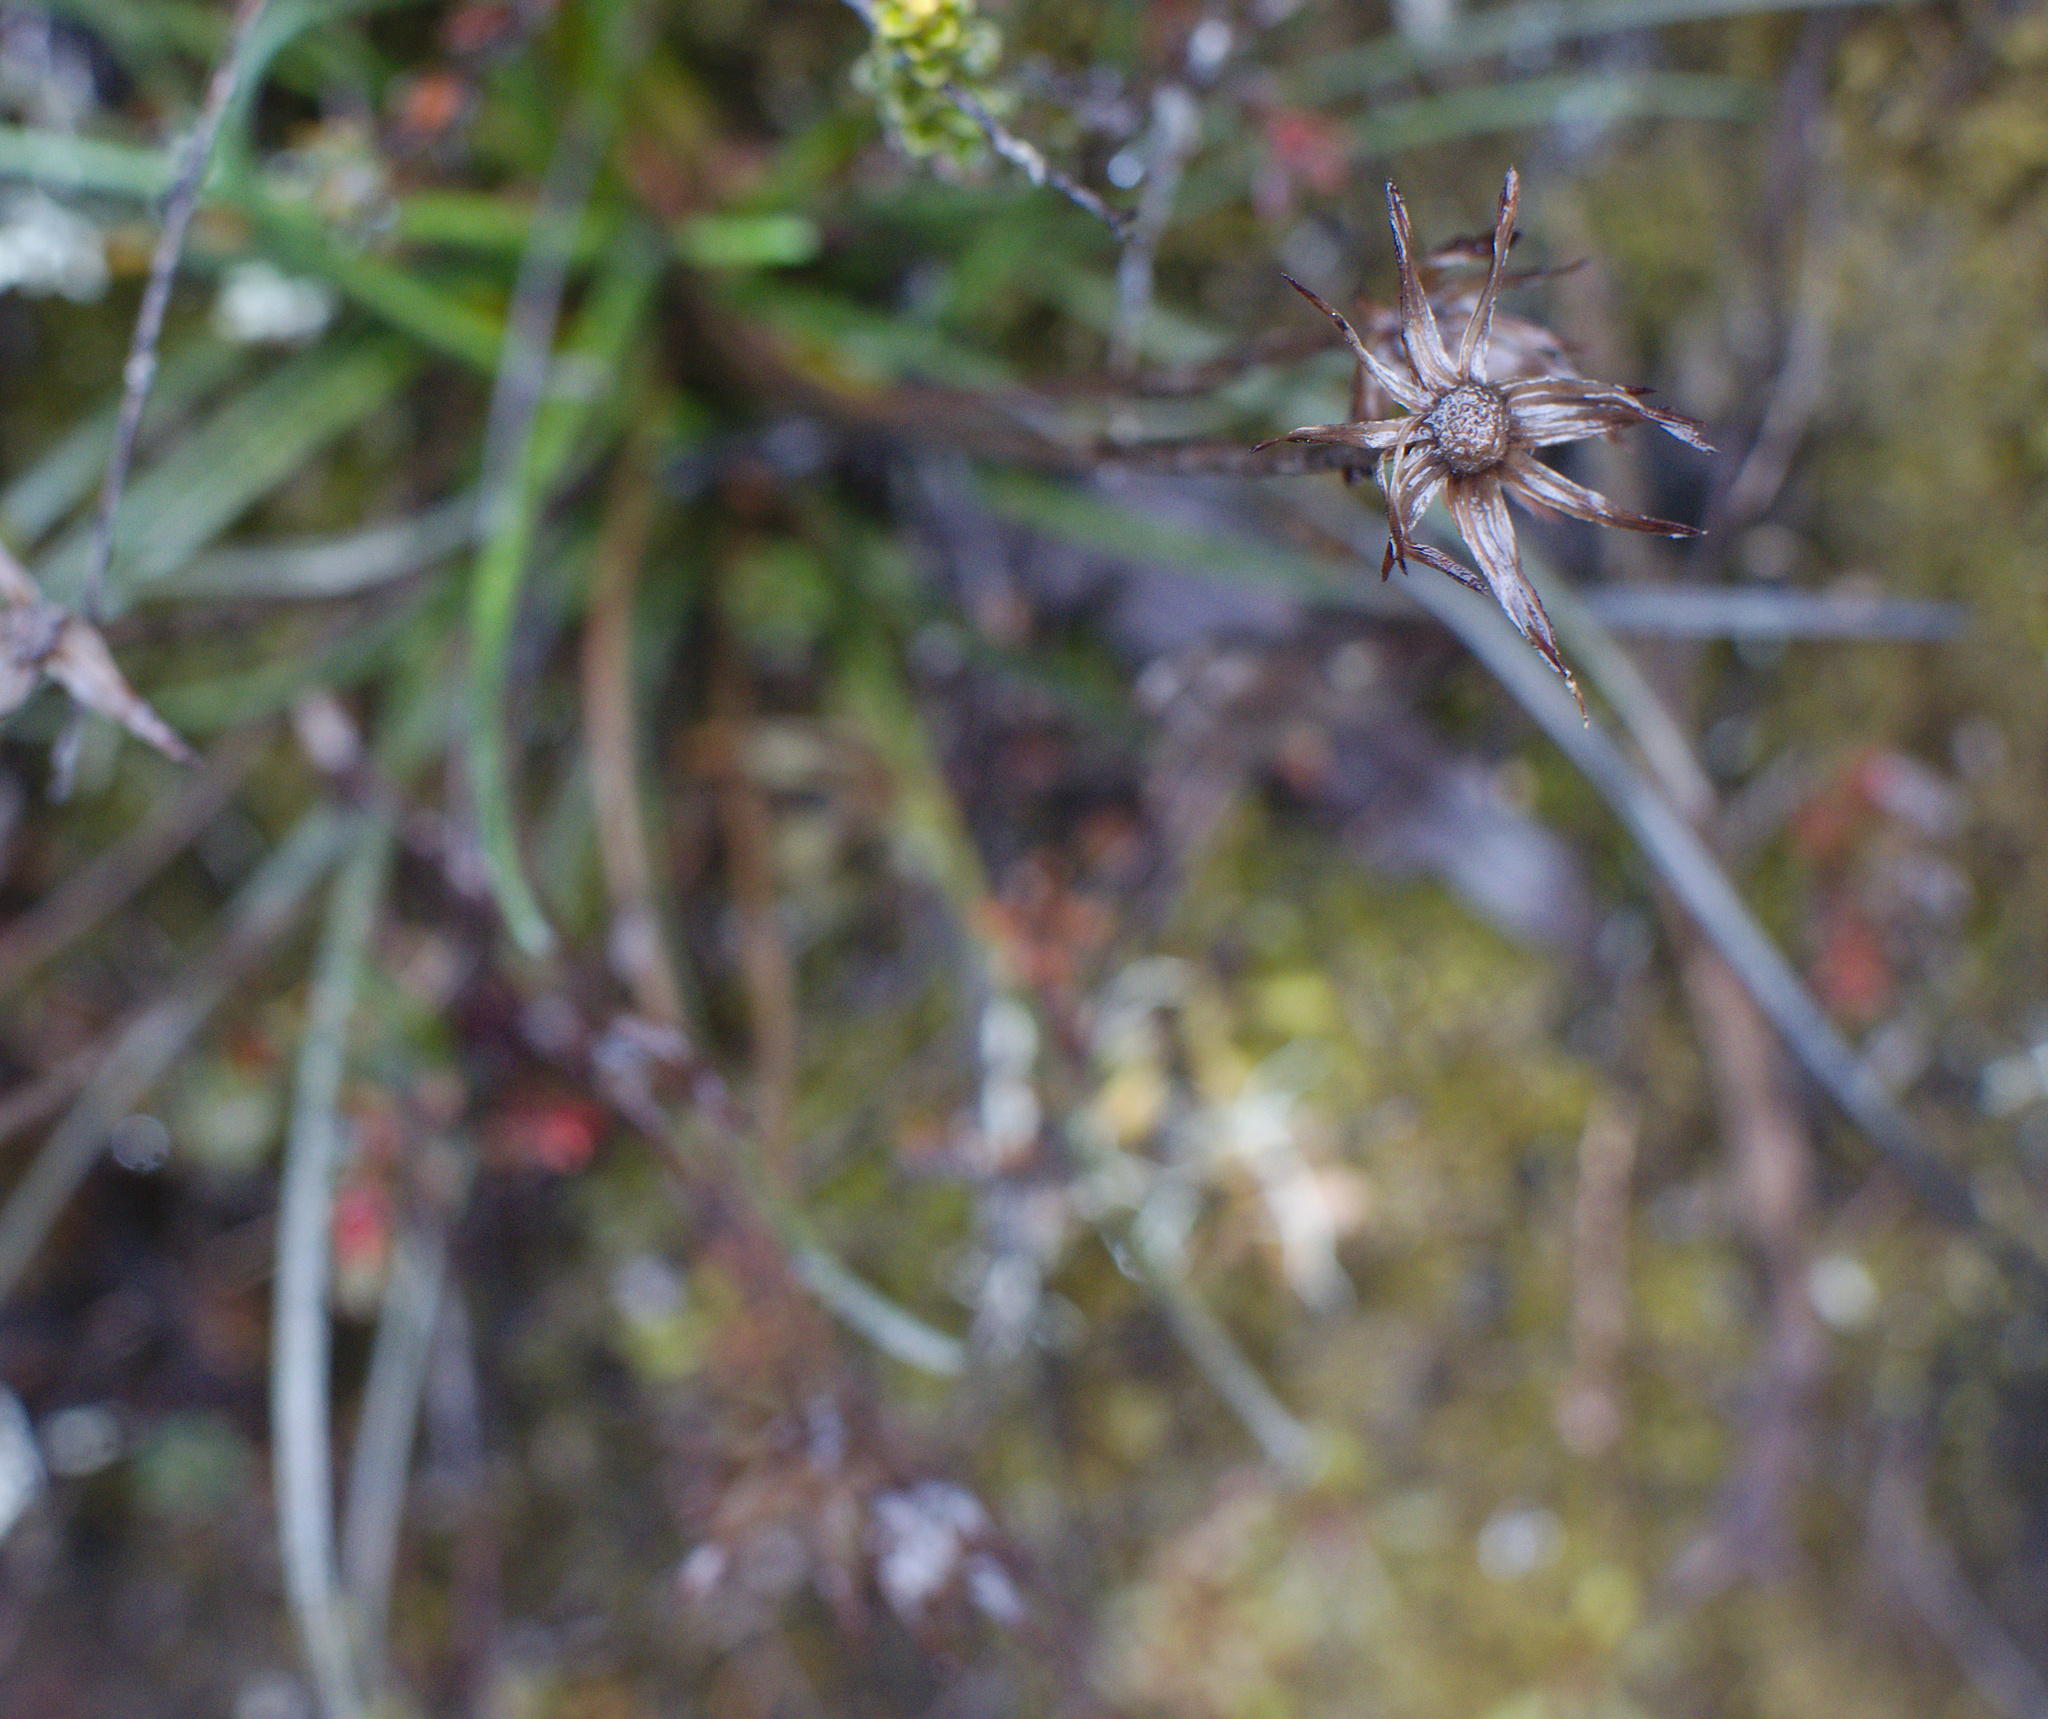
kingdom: Plantae
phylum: Tracheophyta
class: Magnoliopsida
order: Asterales
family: Asteraceae
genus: Celmisia
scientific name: Celmisia gracilenta
